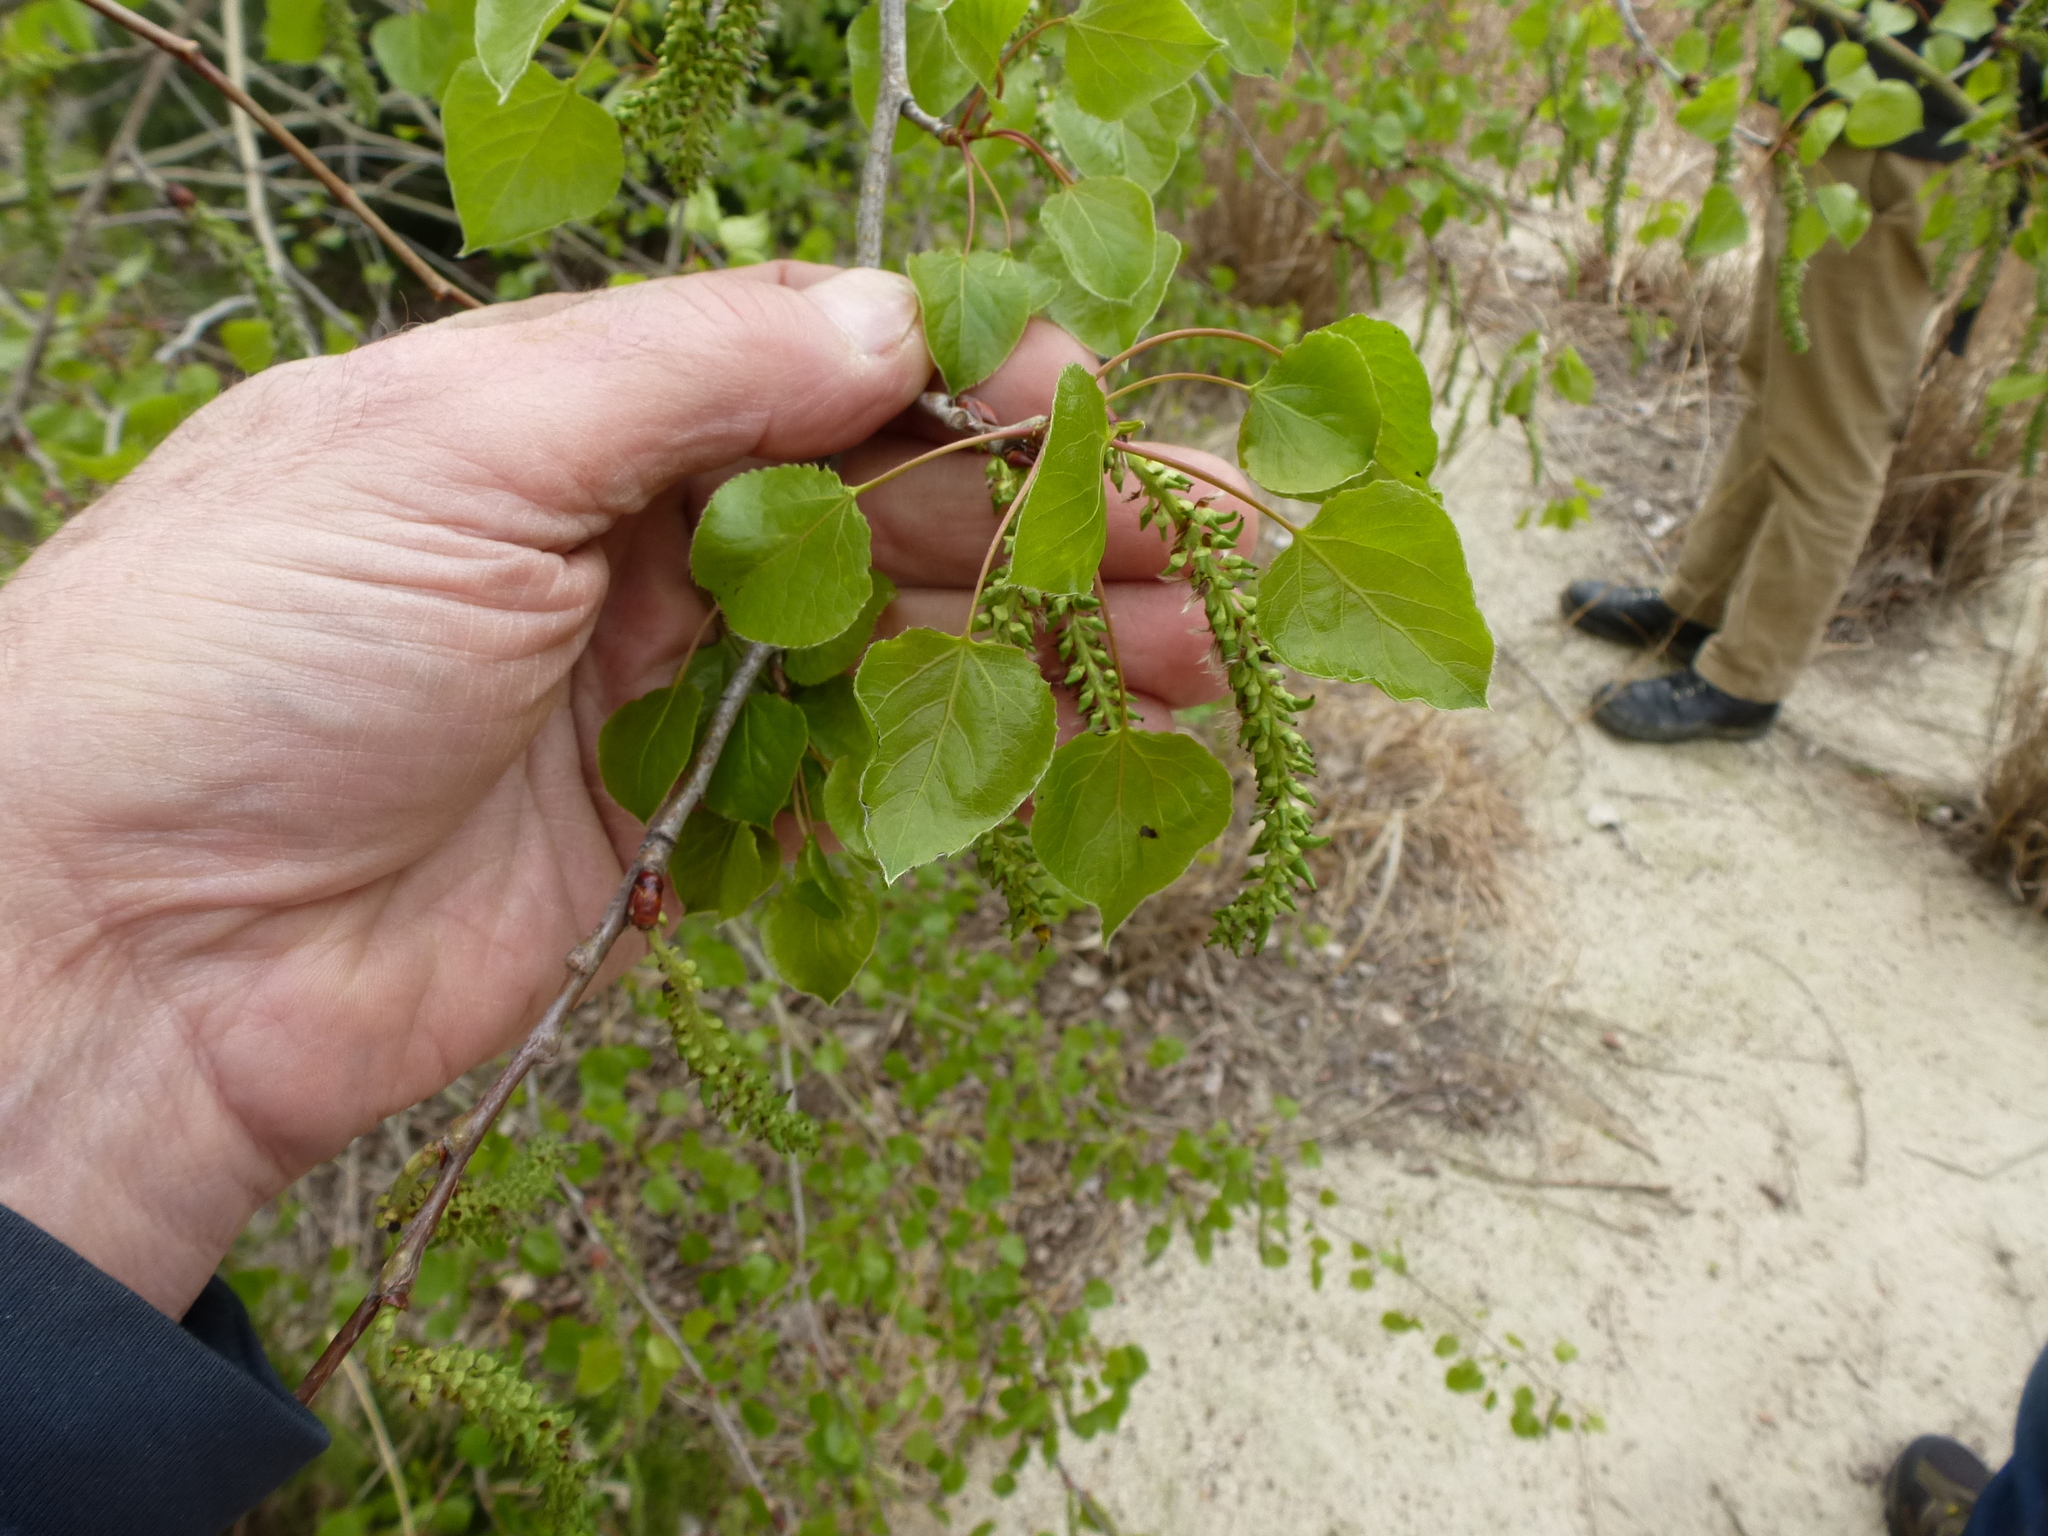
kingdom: Plantae
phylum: Tracheophyta
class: Magnoliopsida
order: Malpighiales
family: Salicaceae
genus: Populus
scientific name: Populus tremuloides
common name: Quaking aspen
